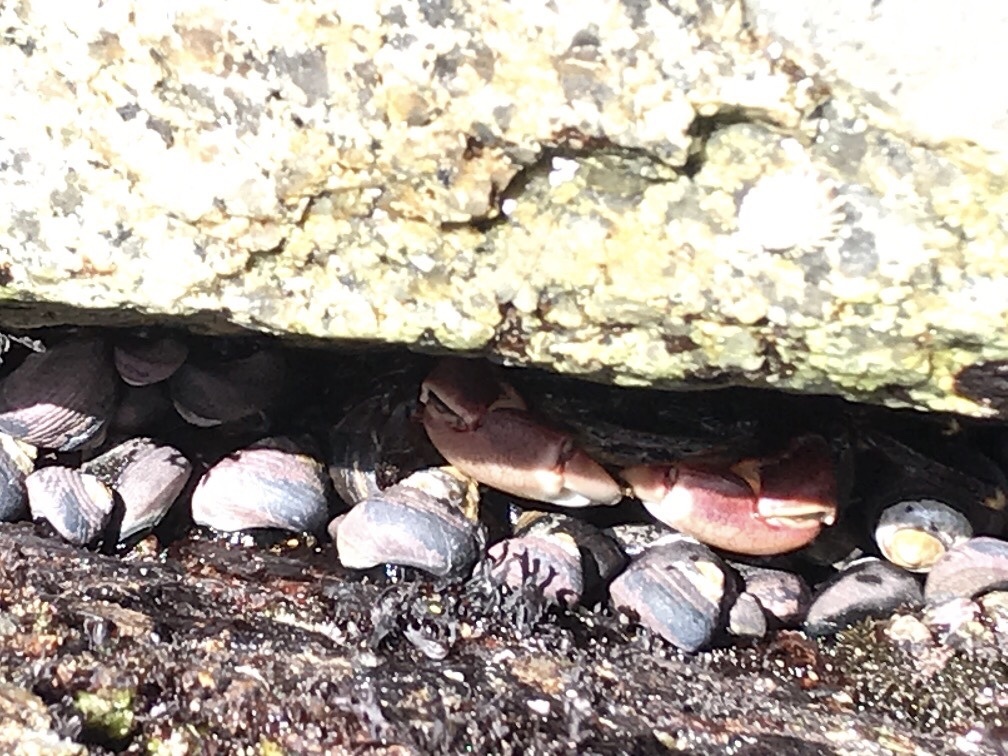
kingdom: Animalia
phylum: Arthropoda
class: Malacostraca
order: Decapoda
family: Grapsidae
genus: Pachygrapsus
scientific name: Pachygrapsus crassipes
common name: Striped shore crab
